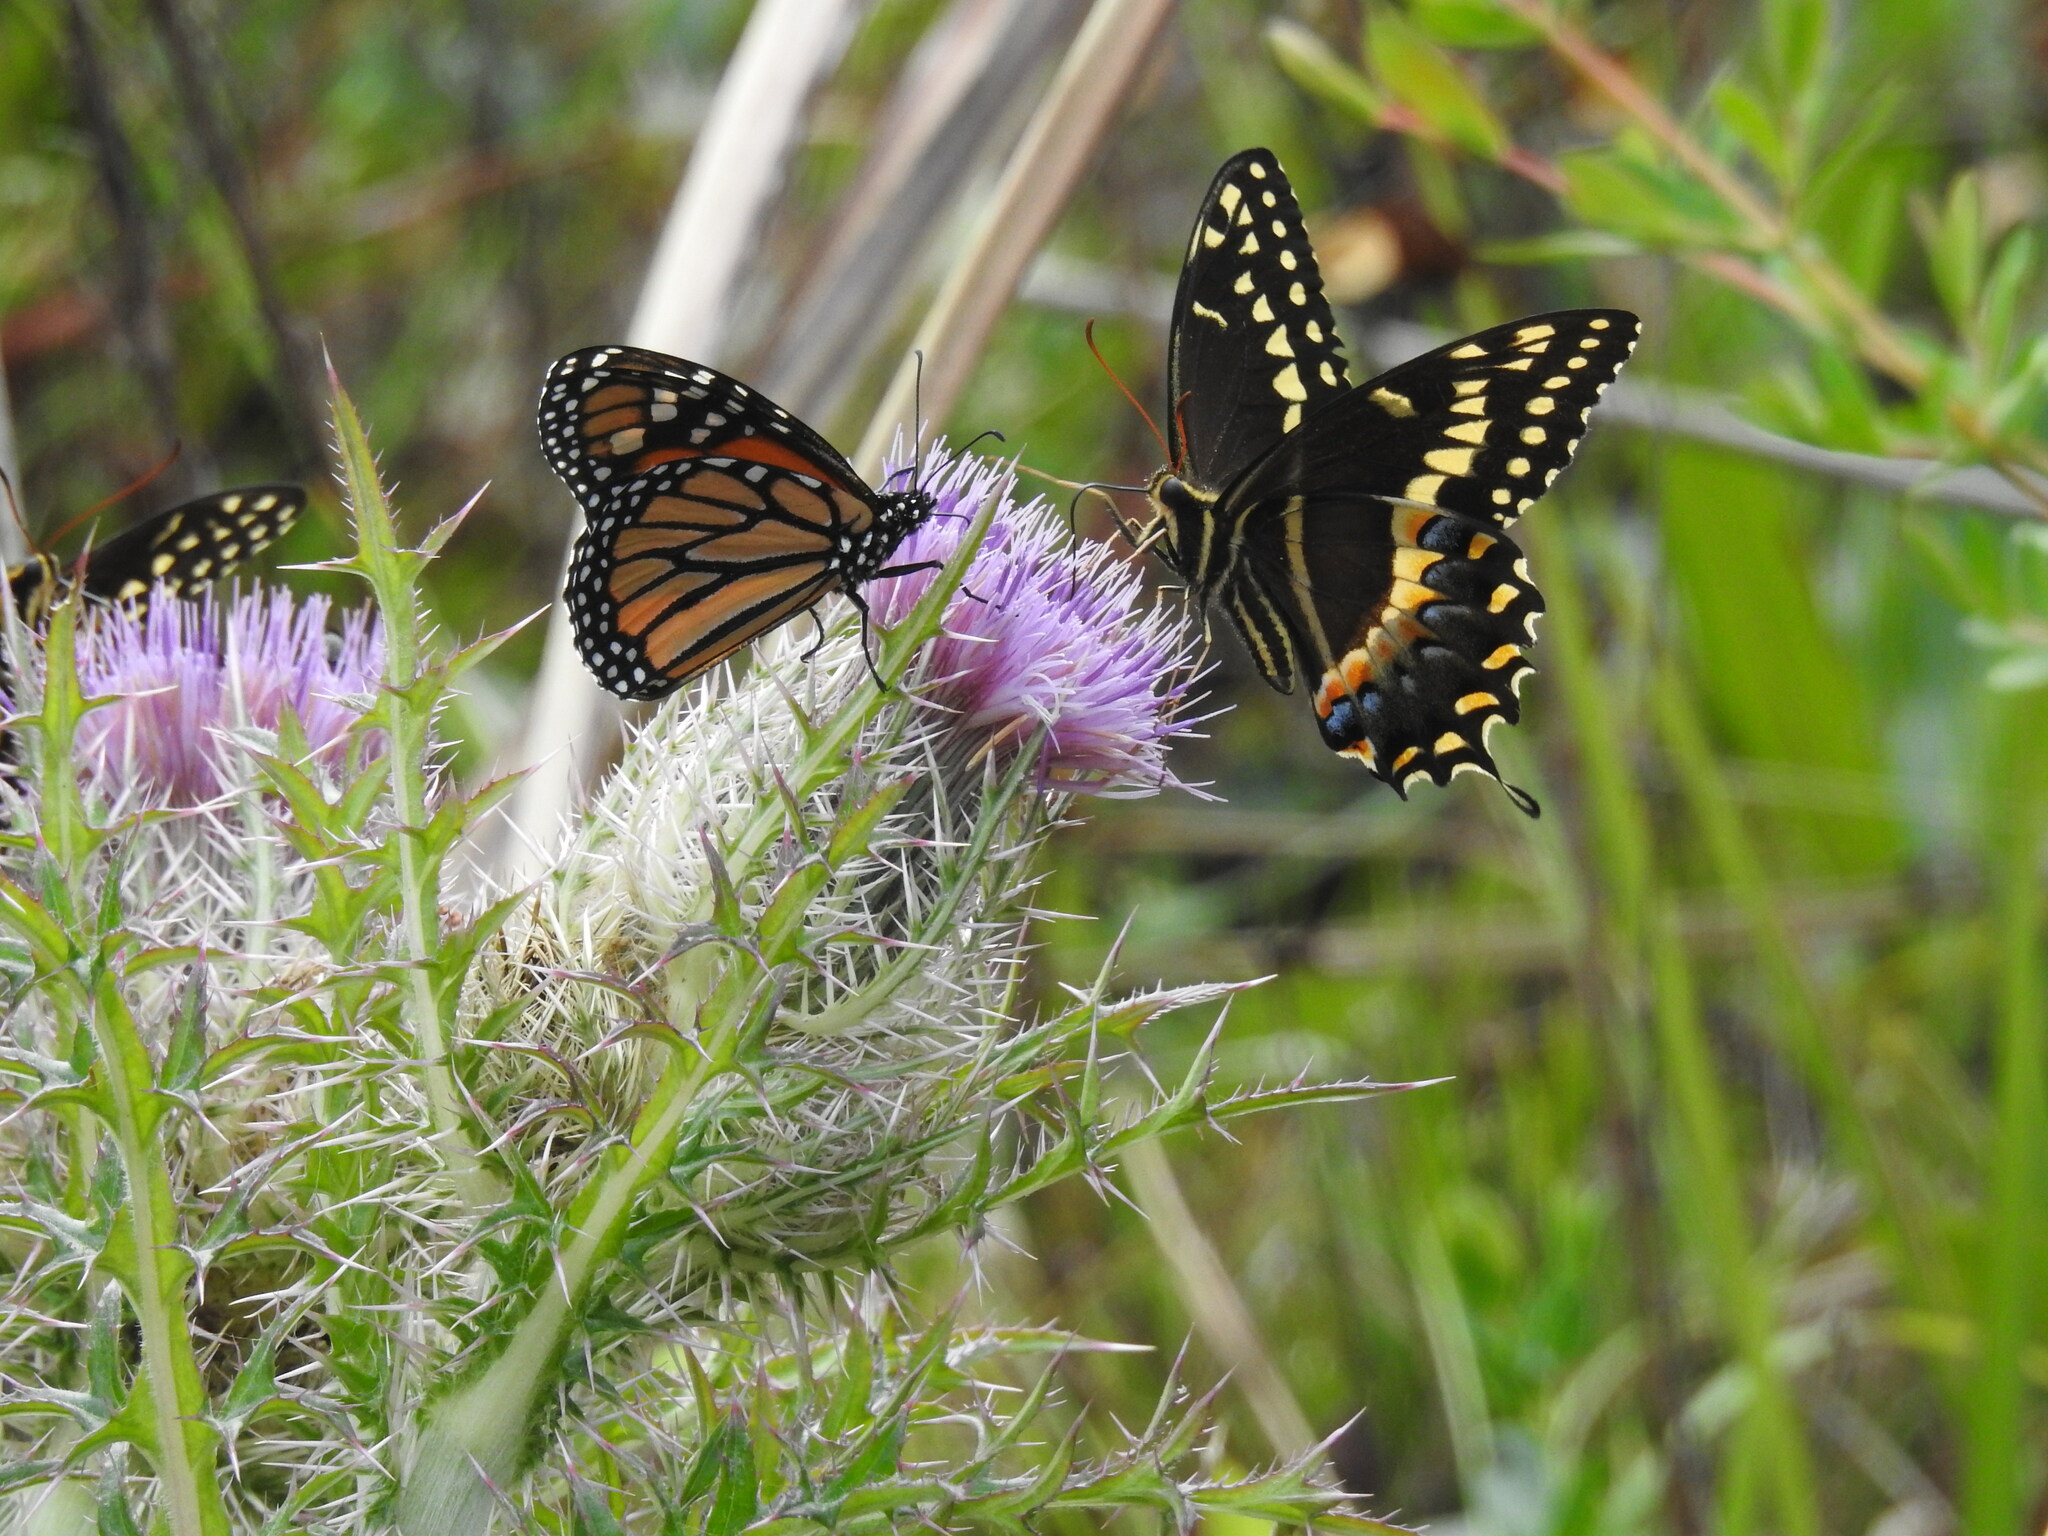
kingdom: Animalia
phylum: Arthropoda
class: Insecta
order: Lepidoptera
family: Papilionidae
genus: Papilio
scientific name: Papilio palamedes
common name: Palamedes swallowtail
